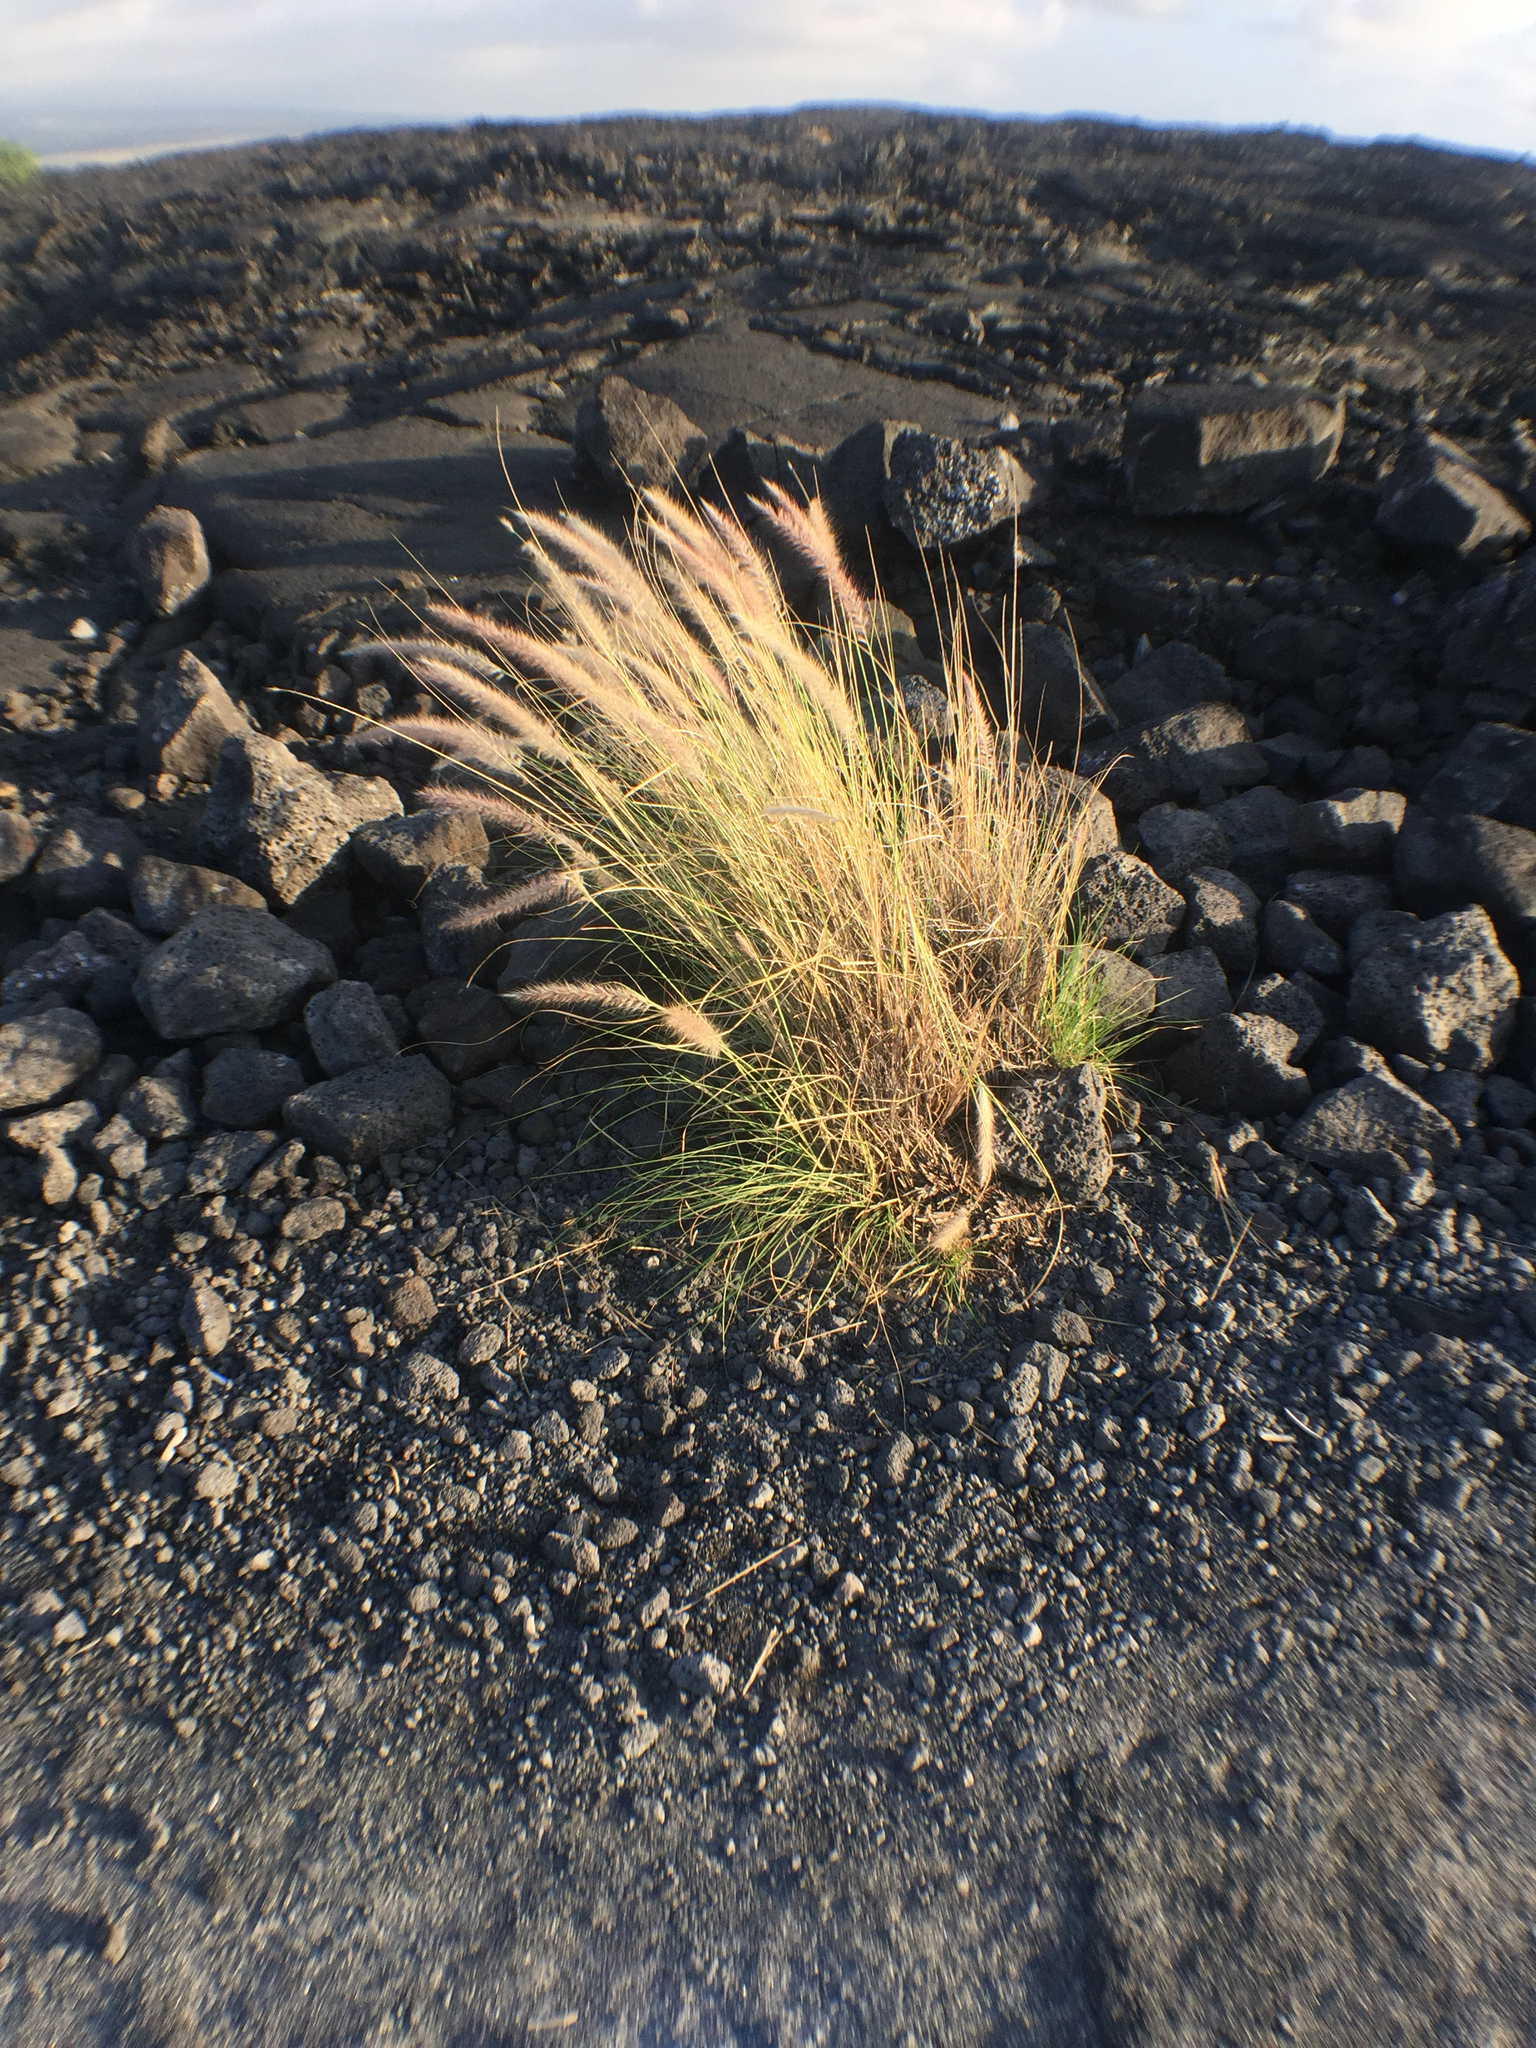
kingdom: Plantae
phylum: Tracheophyta
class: Liliopsida
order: Poales
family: Poaceae
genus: Cenchrus
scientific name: Cenchrus setaceus
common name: Crimson fountaingrass
